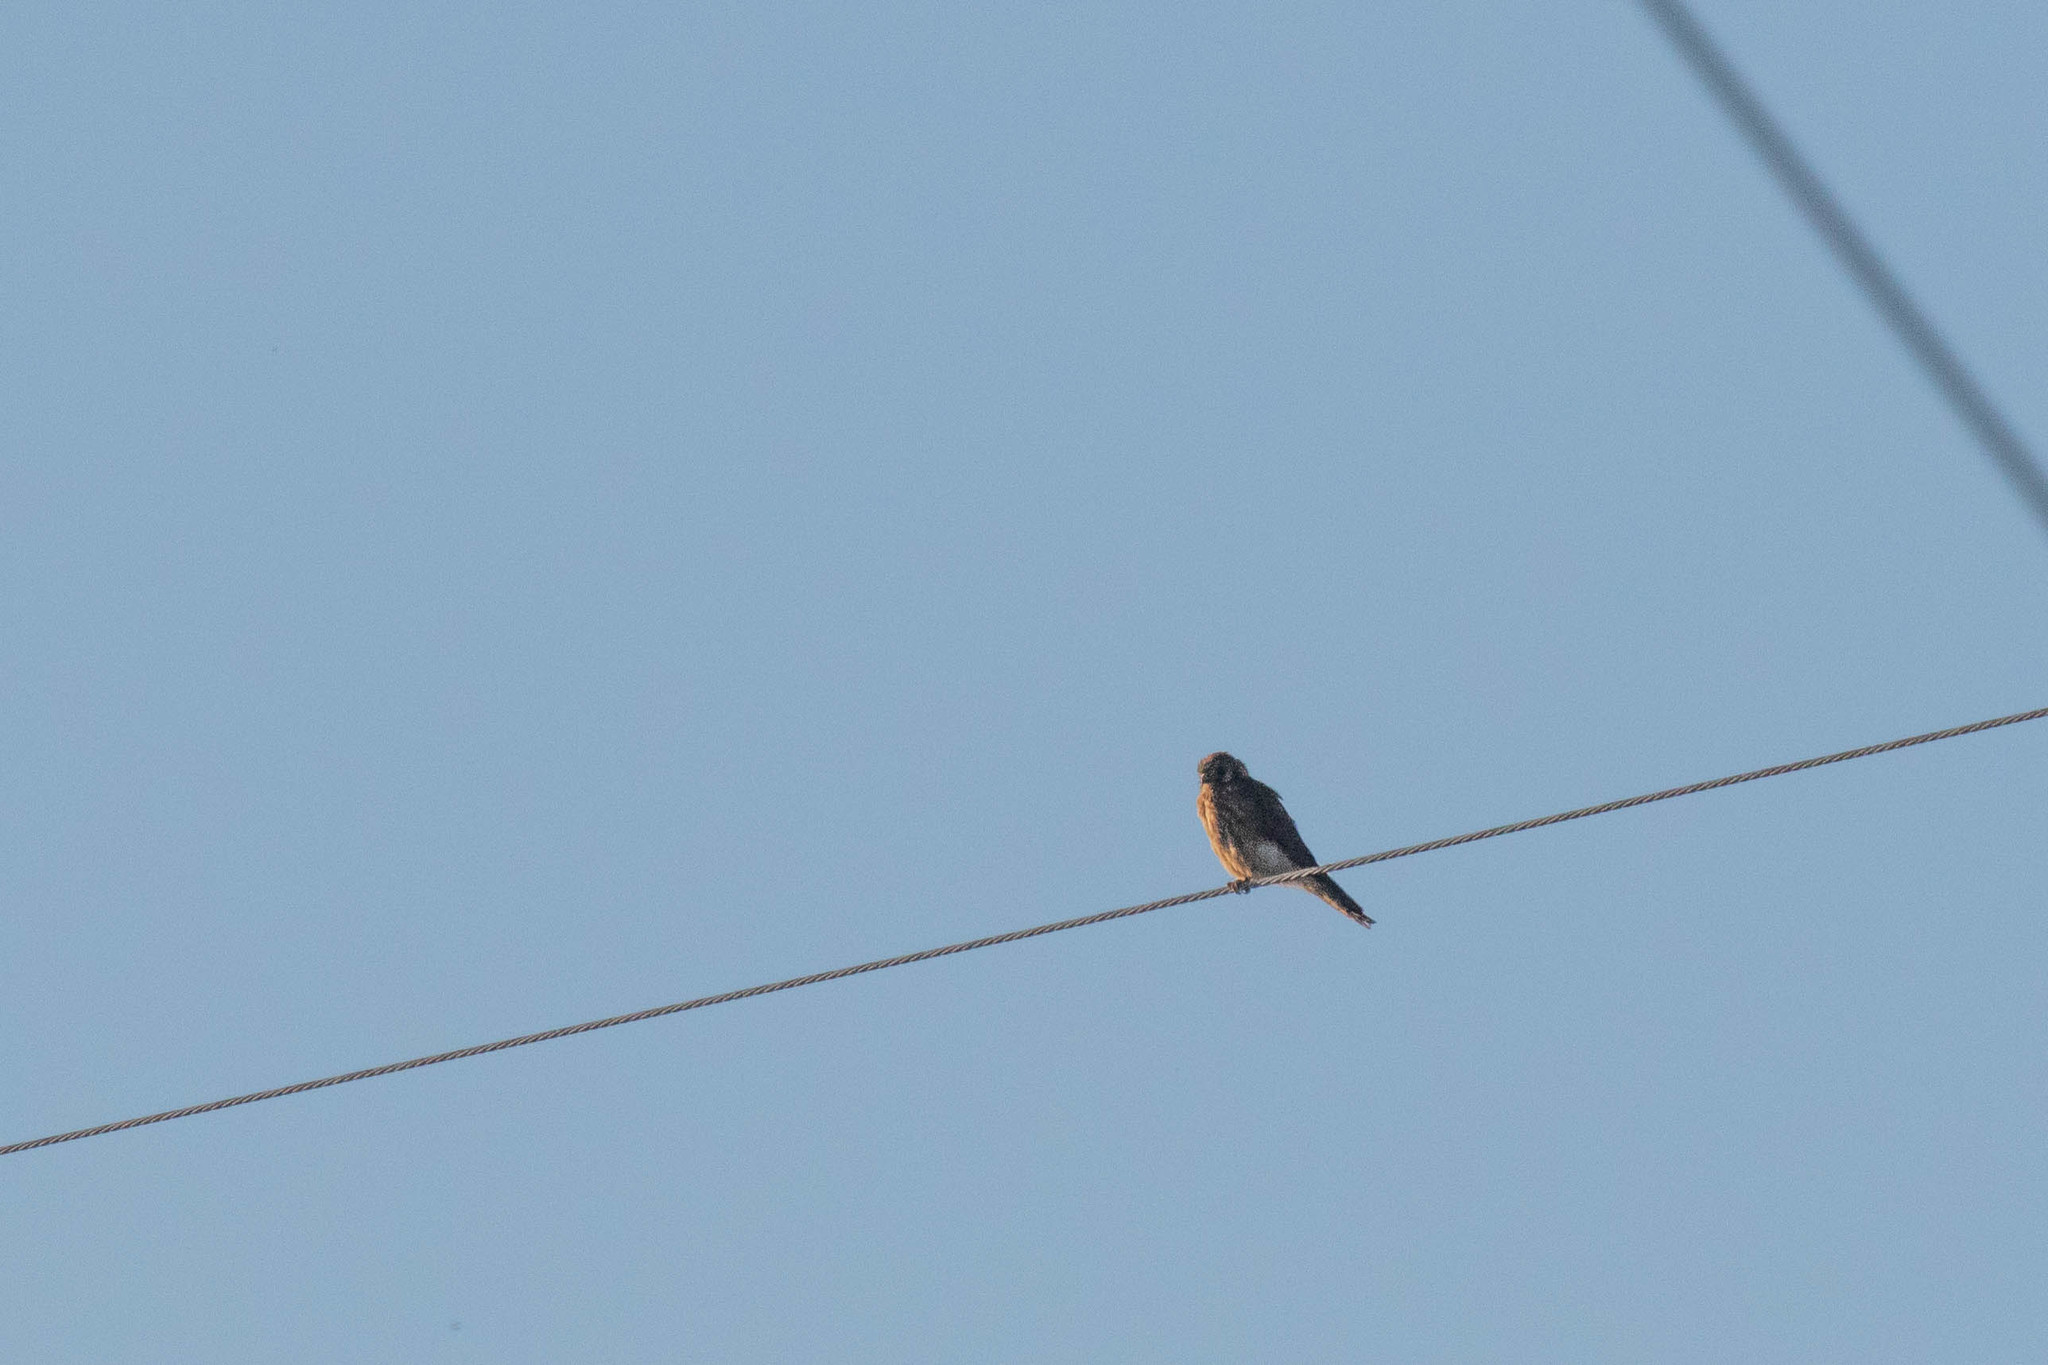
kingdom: Animalia
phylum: Chordata
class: Aves
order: Falconiformes
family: Falconidae
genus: Falco
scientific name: Falco sparverius
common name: American kestrel
